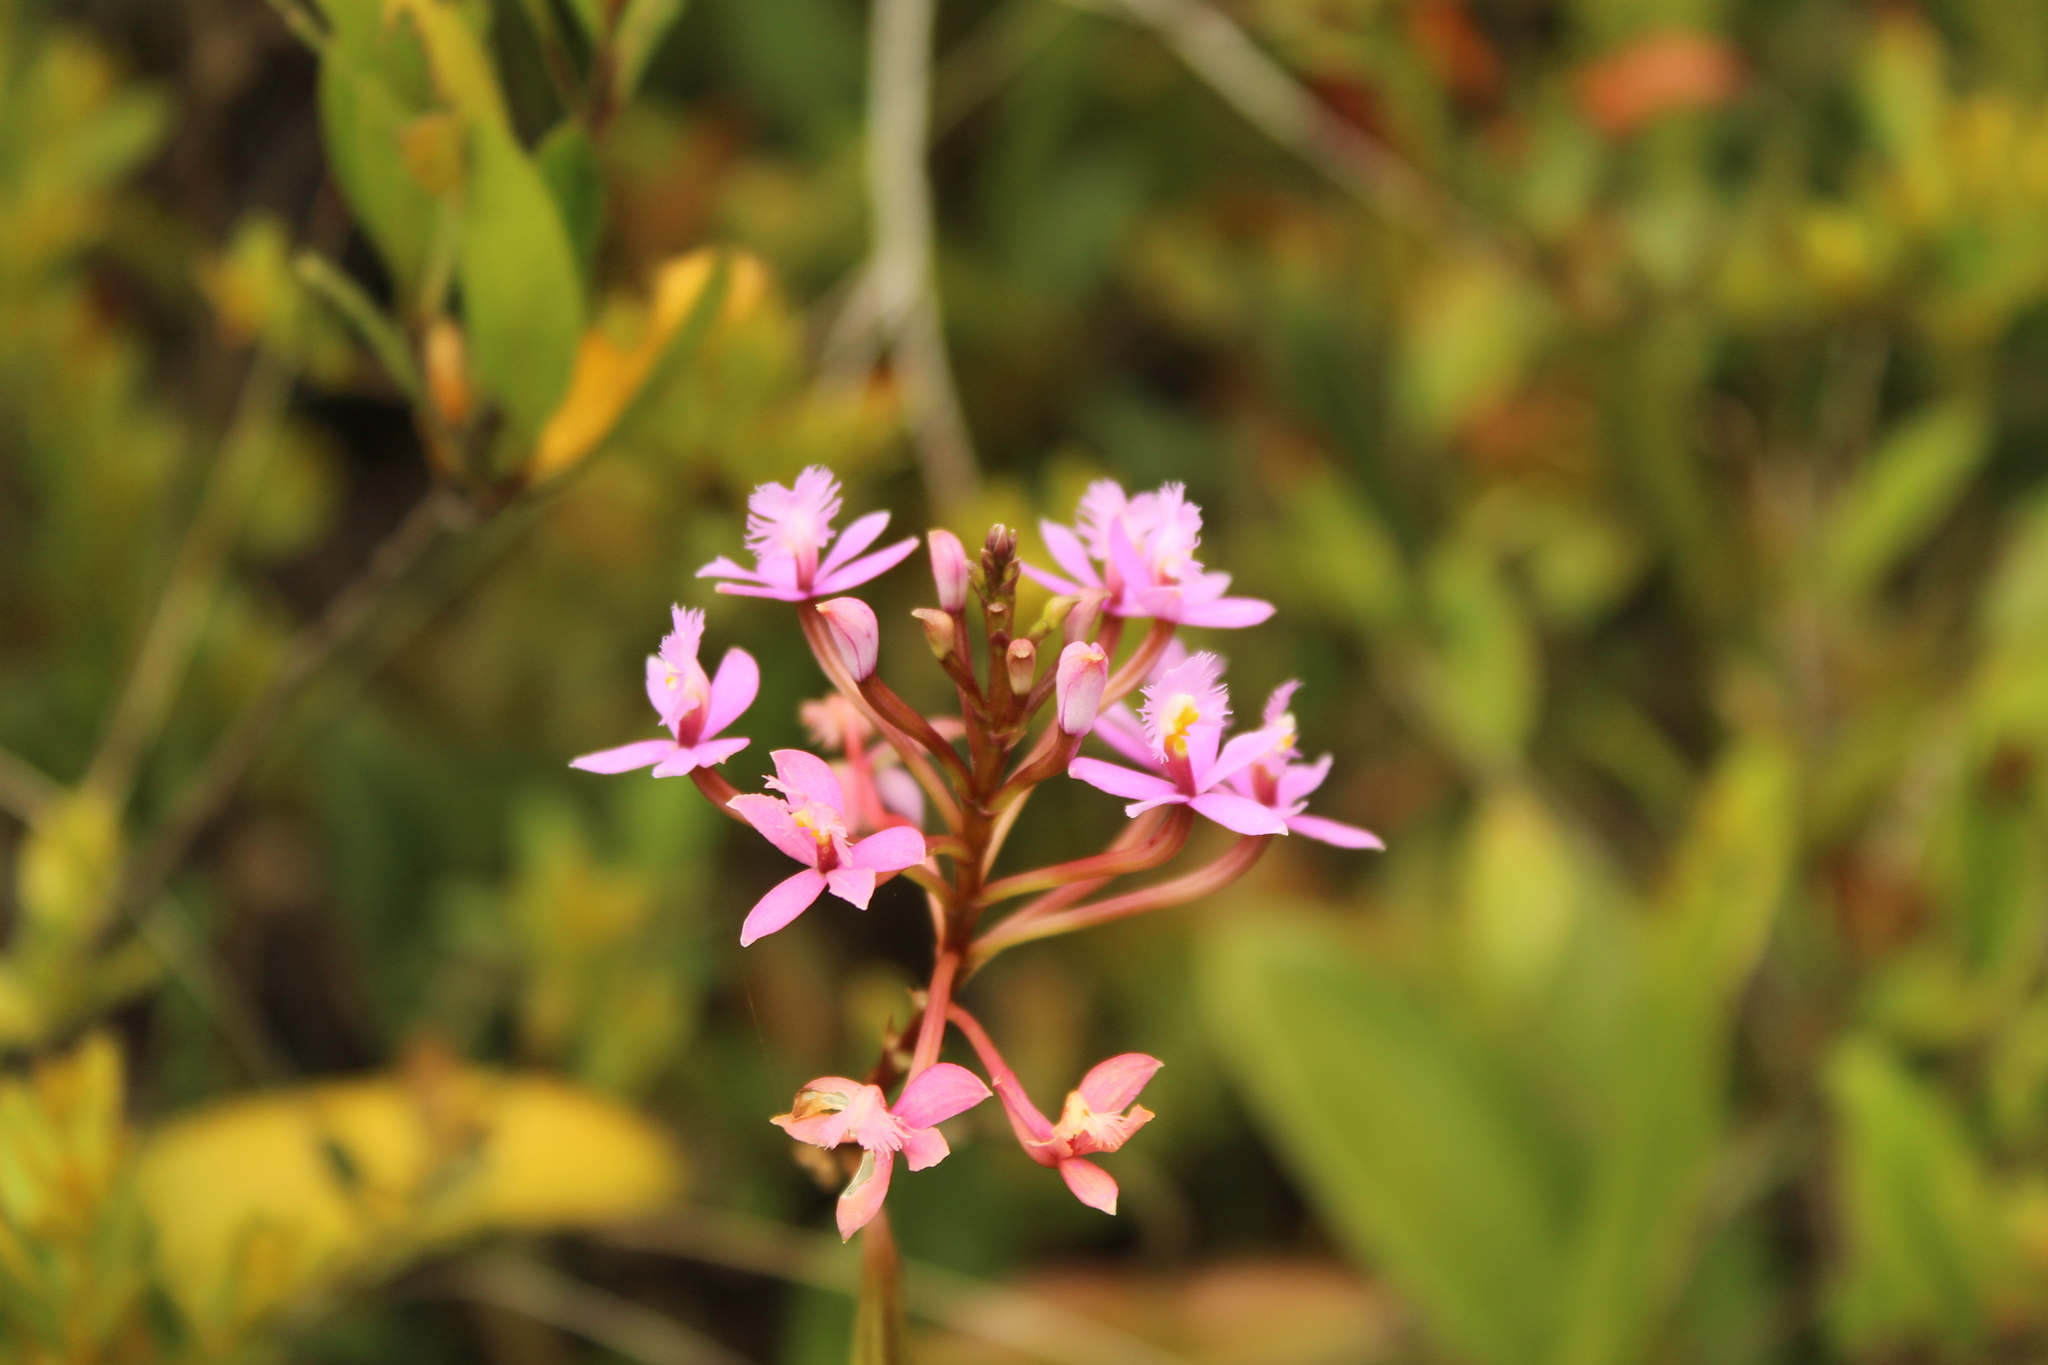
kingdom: Plantae
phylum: Tracheophyta
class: Liliopsida
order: Asparagales
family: Orchidaceae
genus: Epidendrum
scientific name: Epidendrum arachnoglossum
